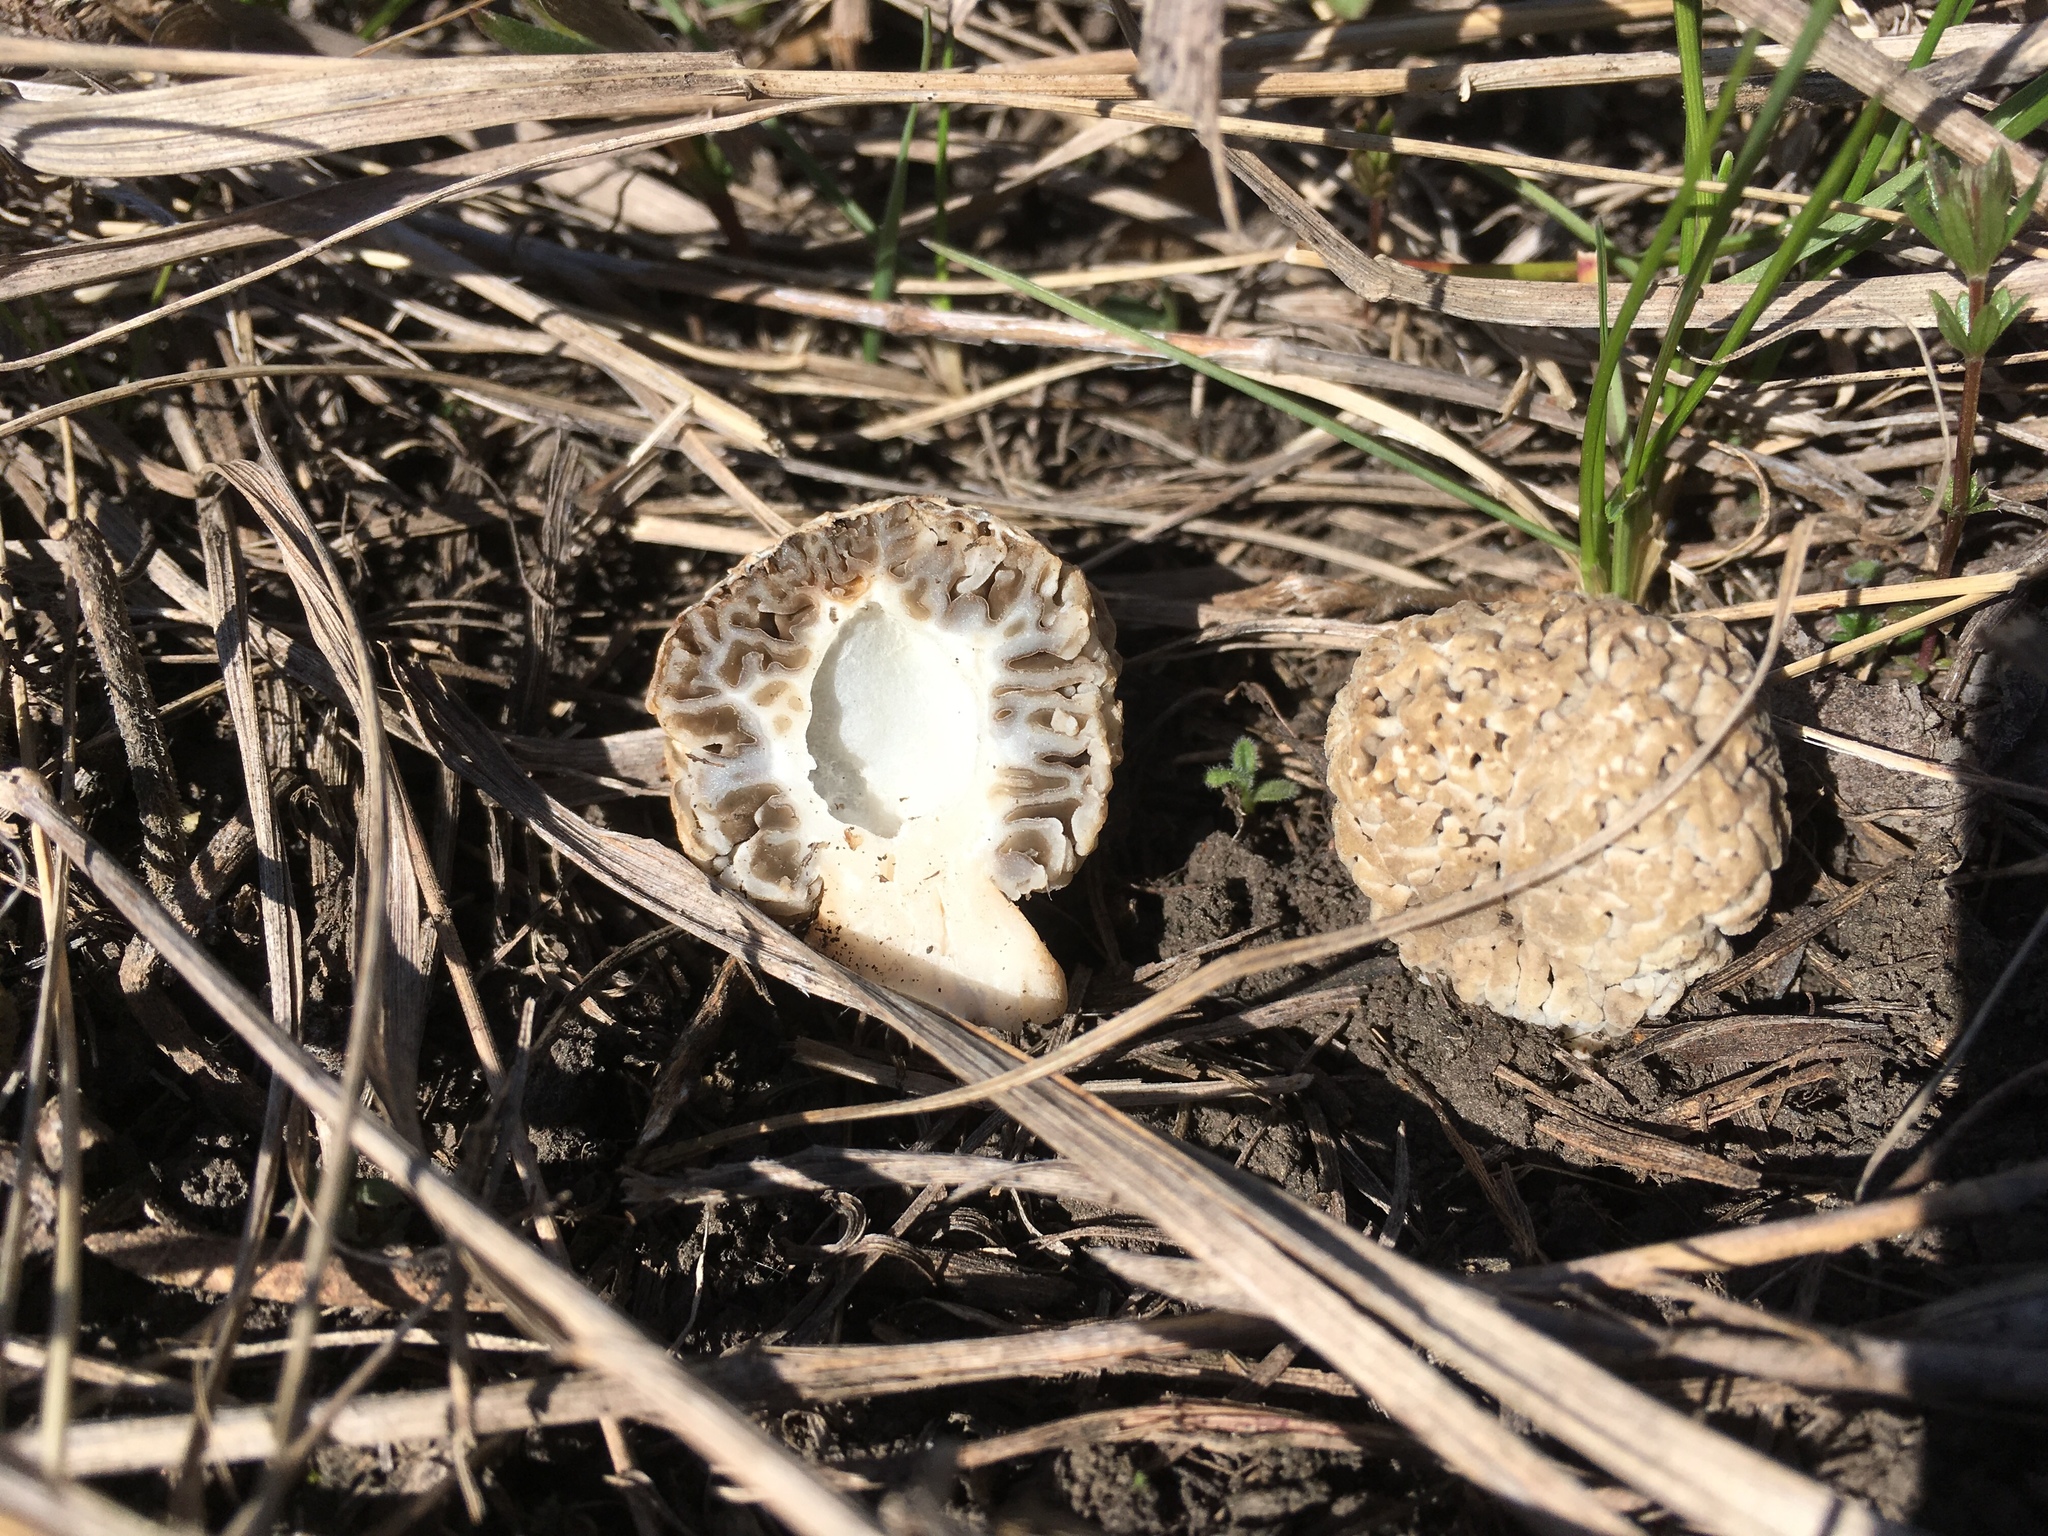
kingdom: Fungi
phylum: Ascomycota
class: Pezizomycetes
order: Pezizales
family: Morchellaceae
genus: Morchella
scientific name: Morchella steppicola
